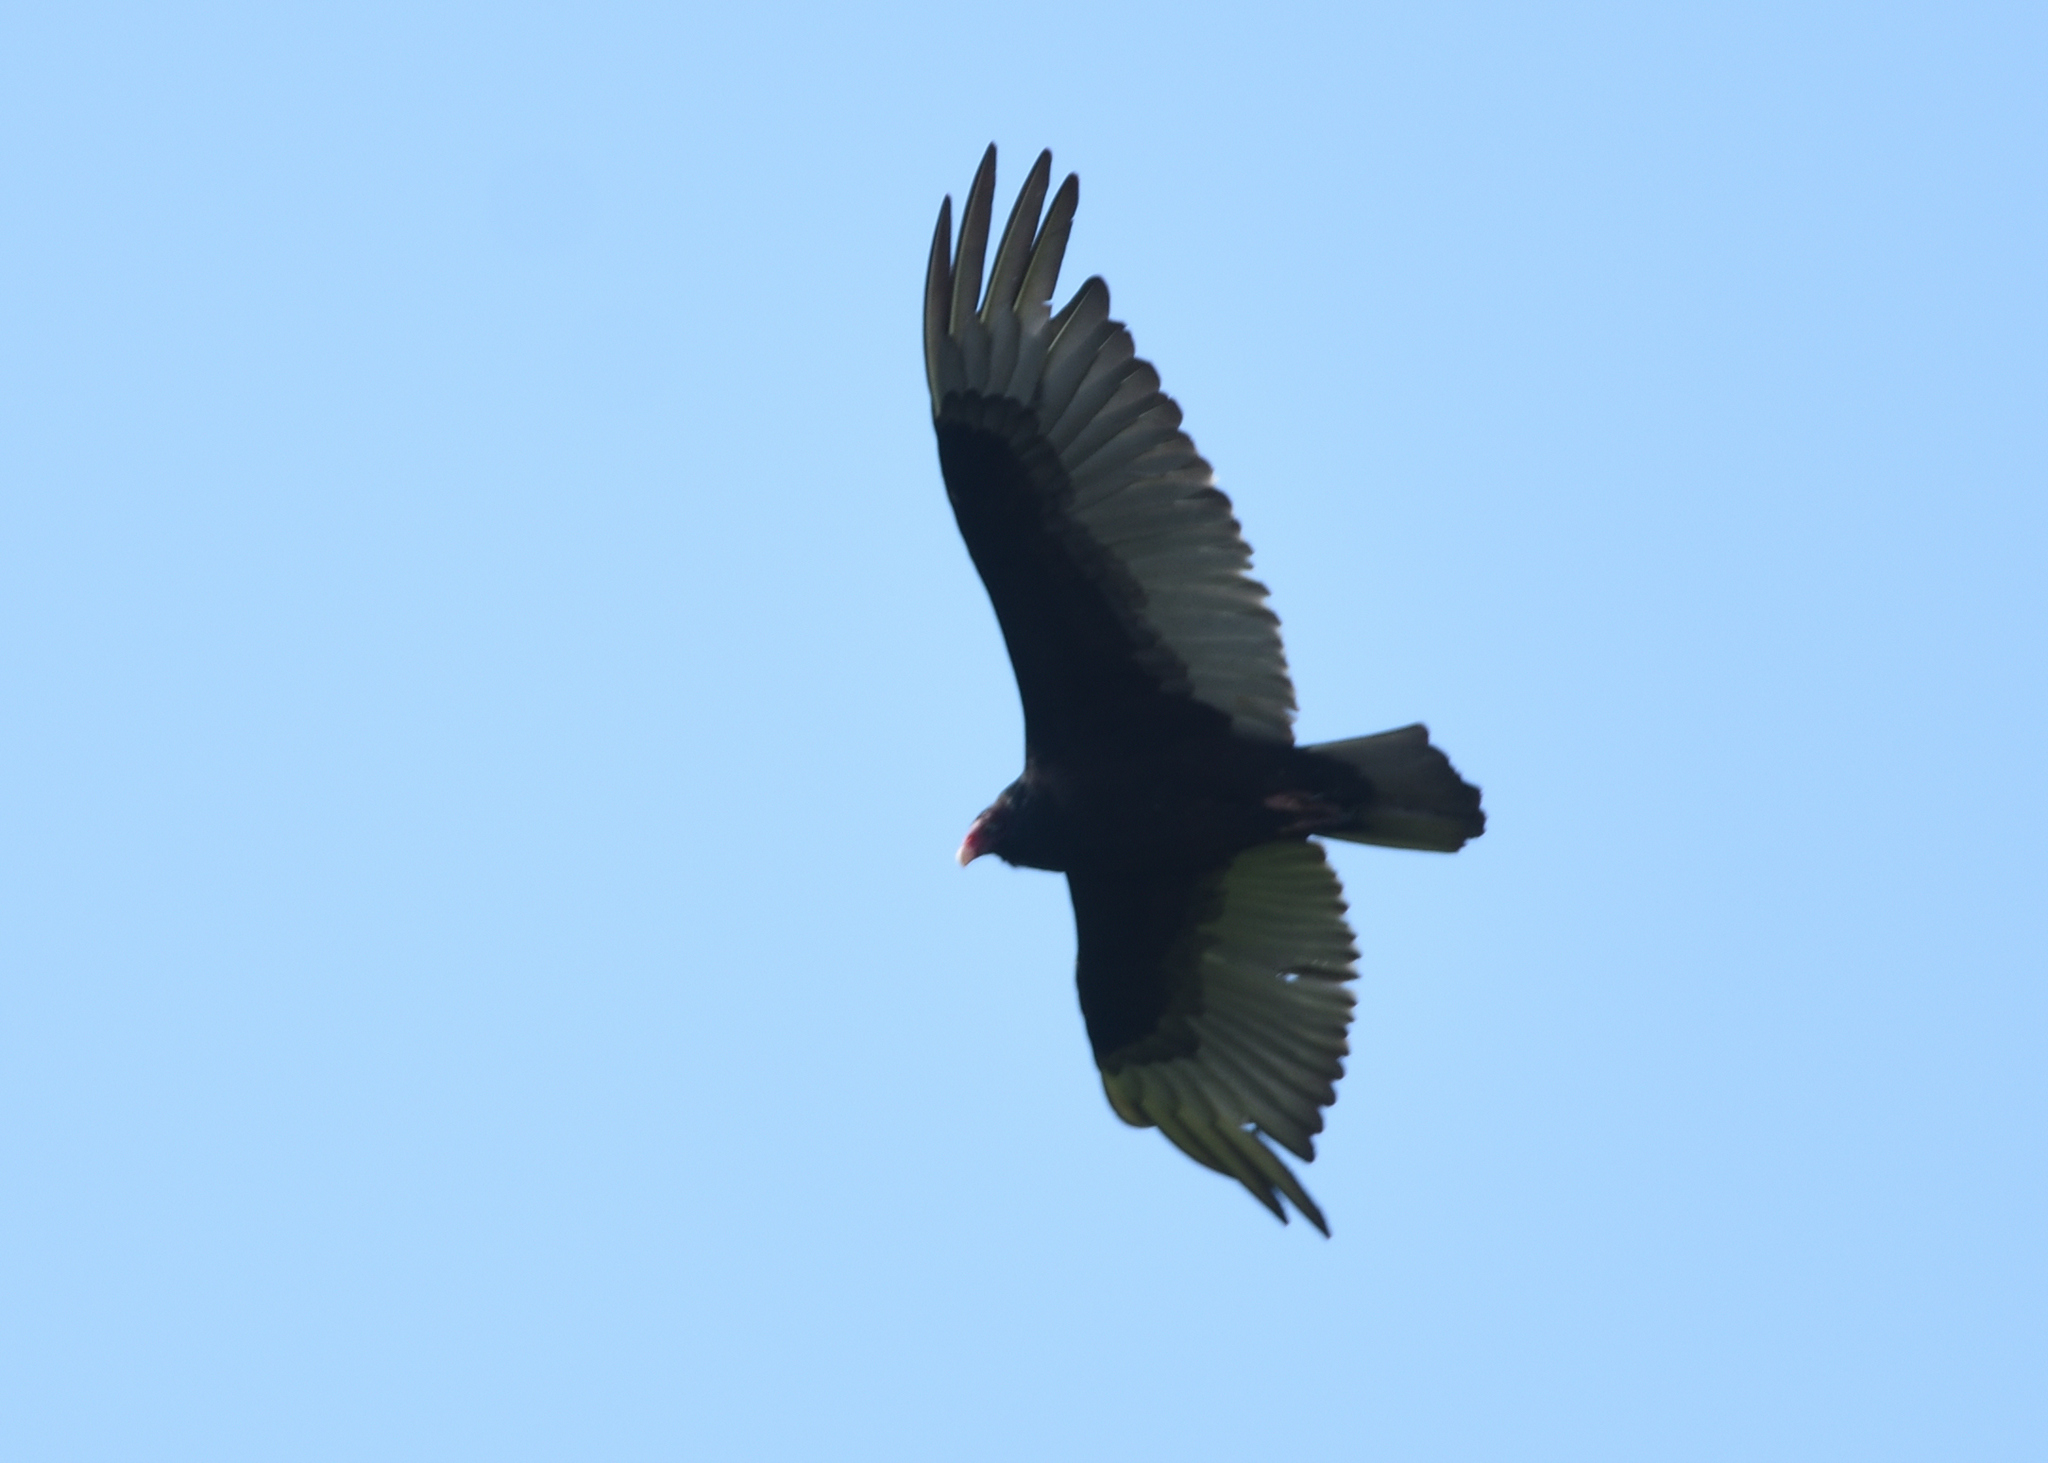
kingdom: Animalia
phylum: Chordata
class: Aves
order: Accipitriformes
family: Cathartidae
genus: Cathartes
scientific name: Cathartes aura
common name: Turkey vulture
